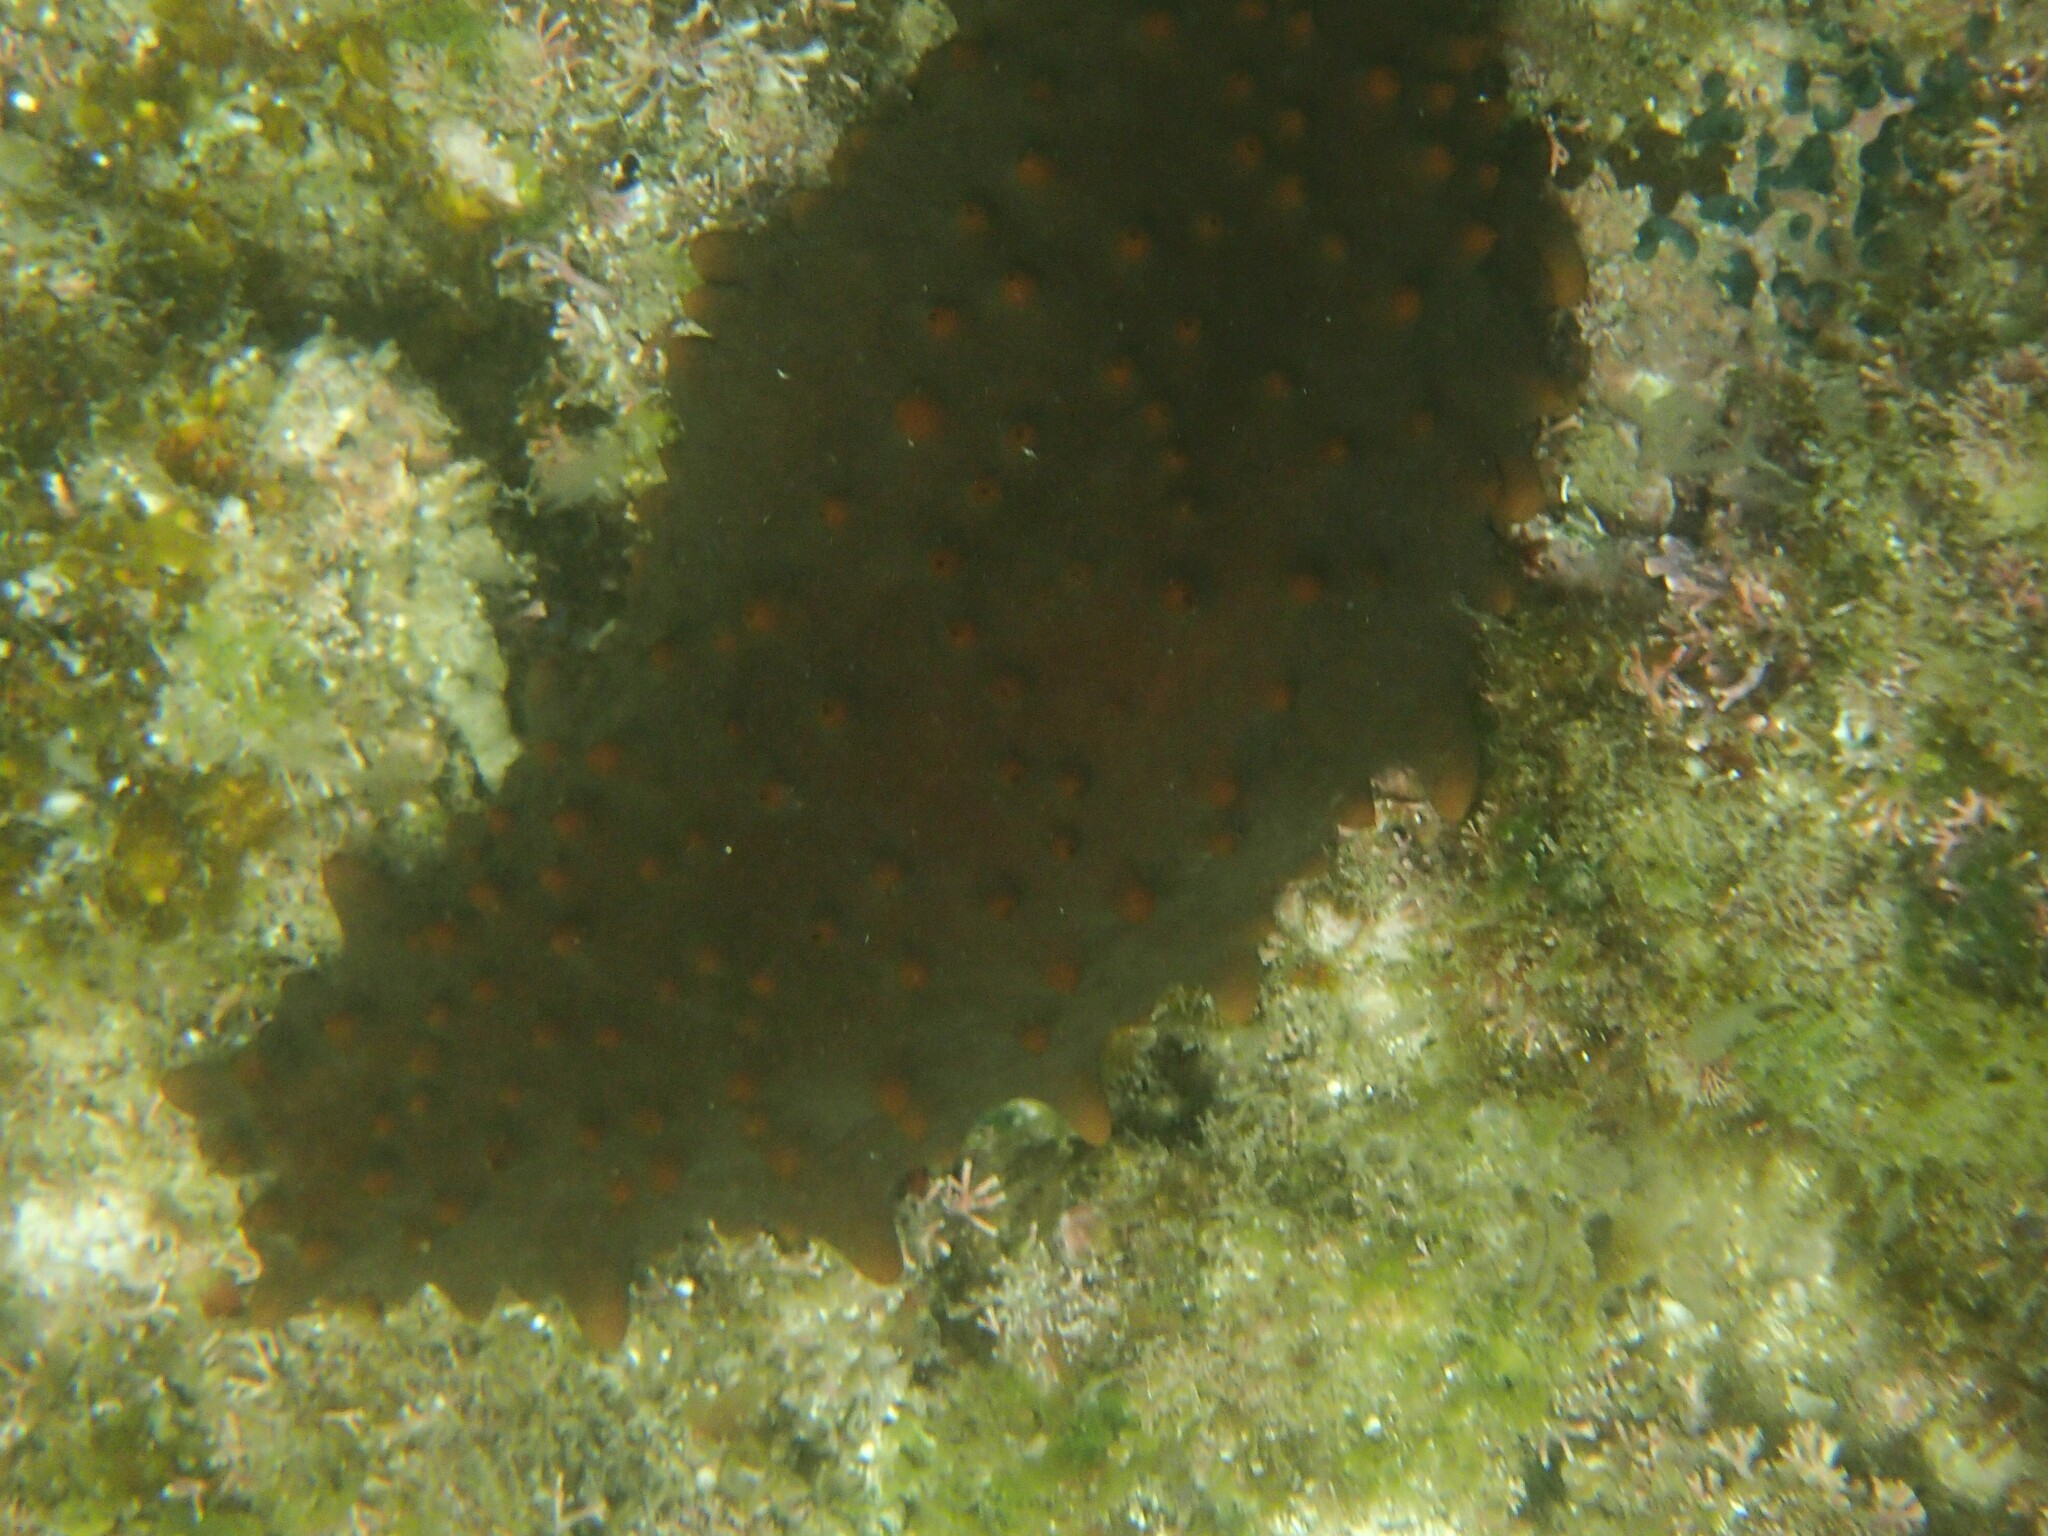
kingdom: Animalia
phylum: Echinodermata
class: Holothuroidea
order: Synallactida
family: Stichopodidae
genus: Isostichopus
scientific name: Isostichopus fuscus
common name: Brown sea cucumber
